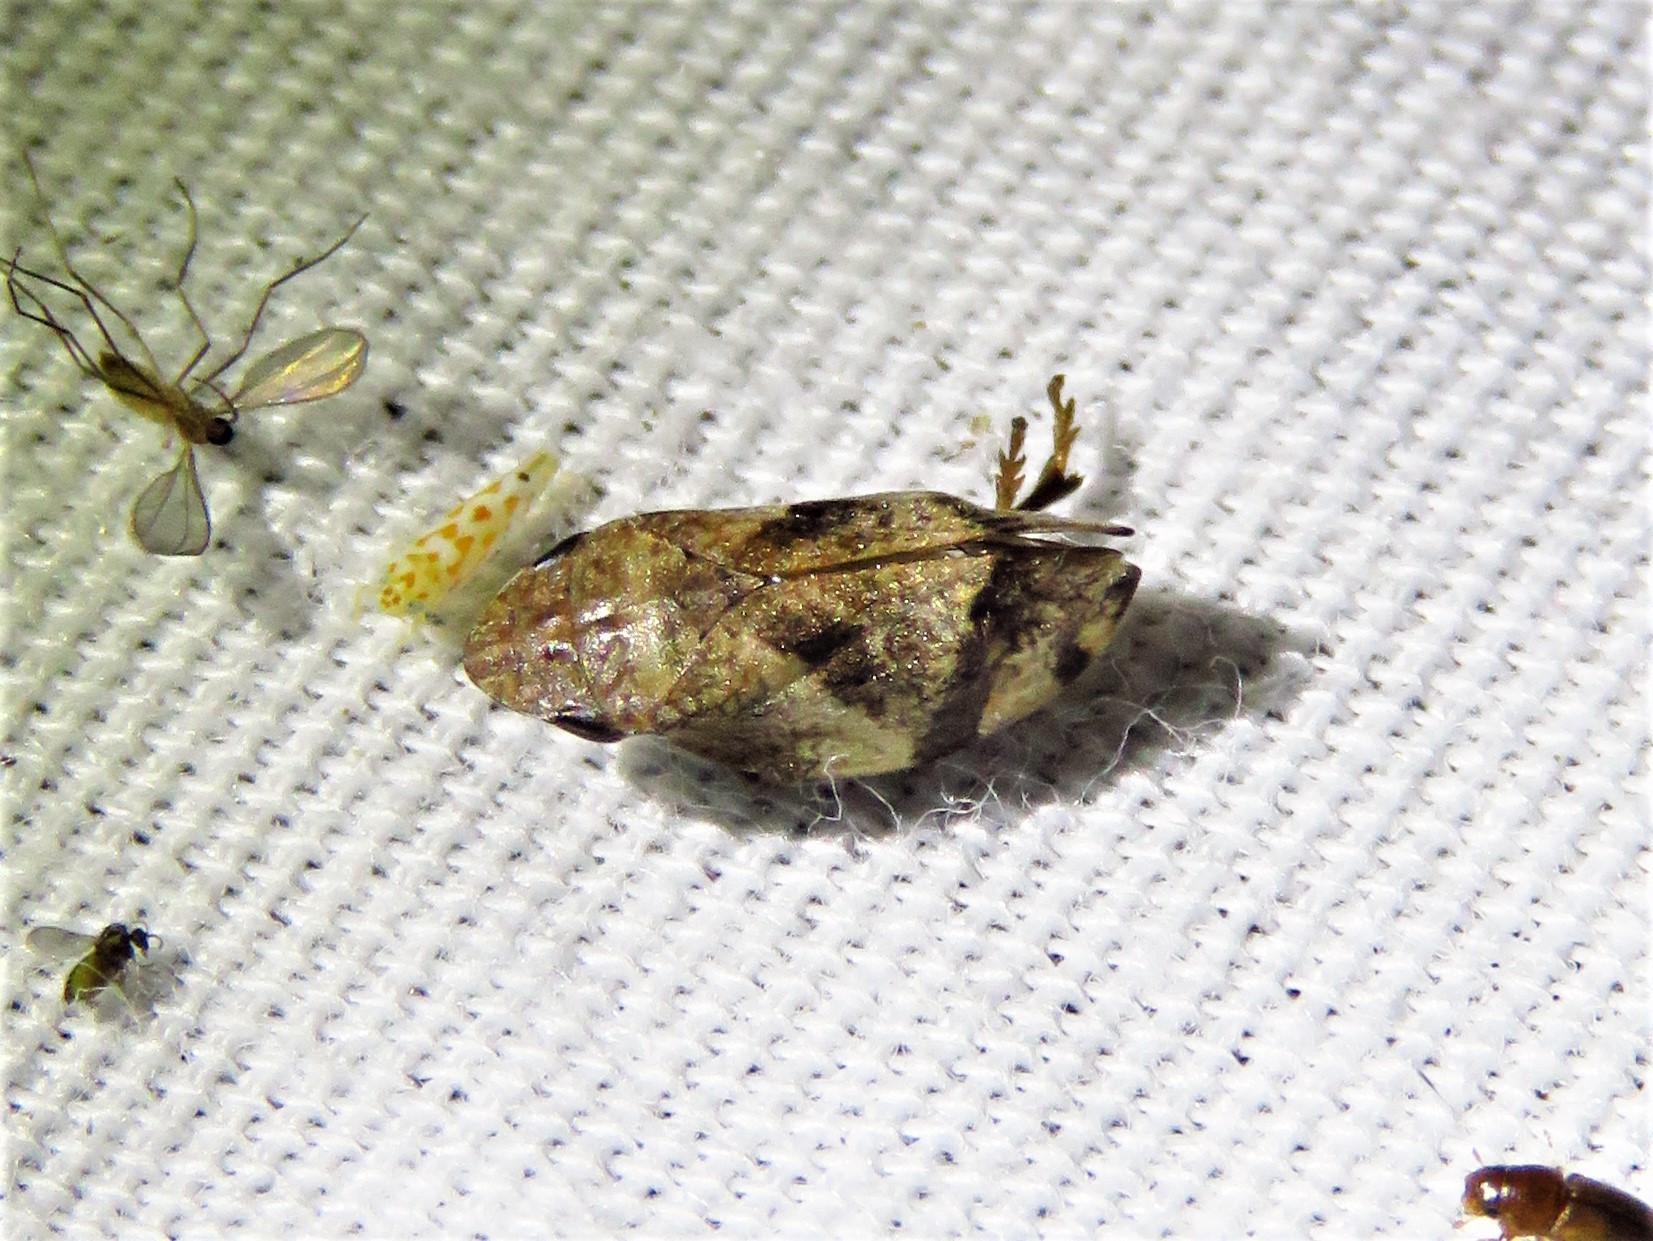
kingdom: Animalia
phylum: Arthropoda
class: Insecta
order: Hemiptera
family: Aphrophoridae
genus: Lepyronia
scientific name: Lepyronia quadrangularis
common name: Diamond-backed spittlebug
